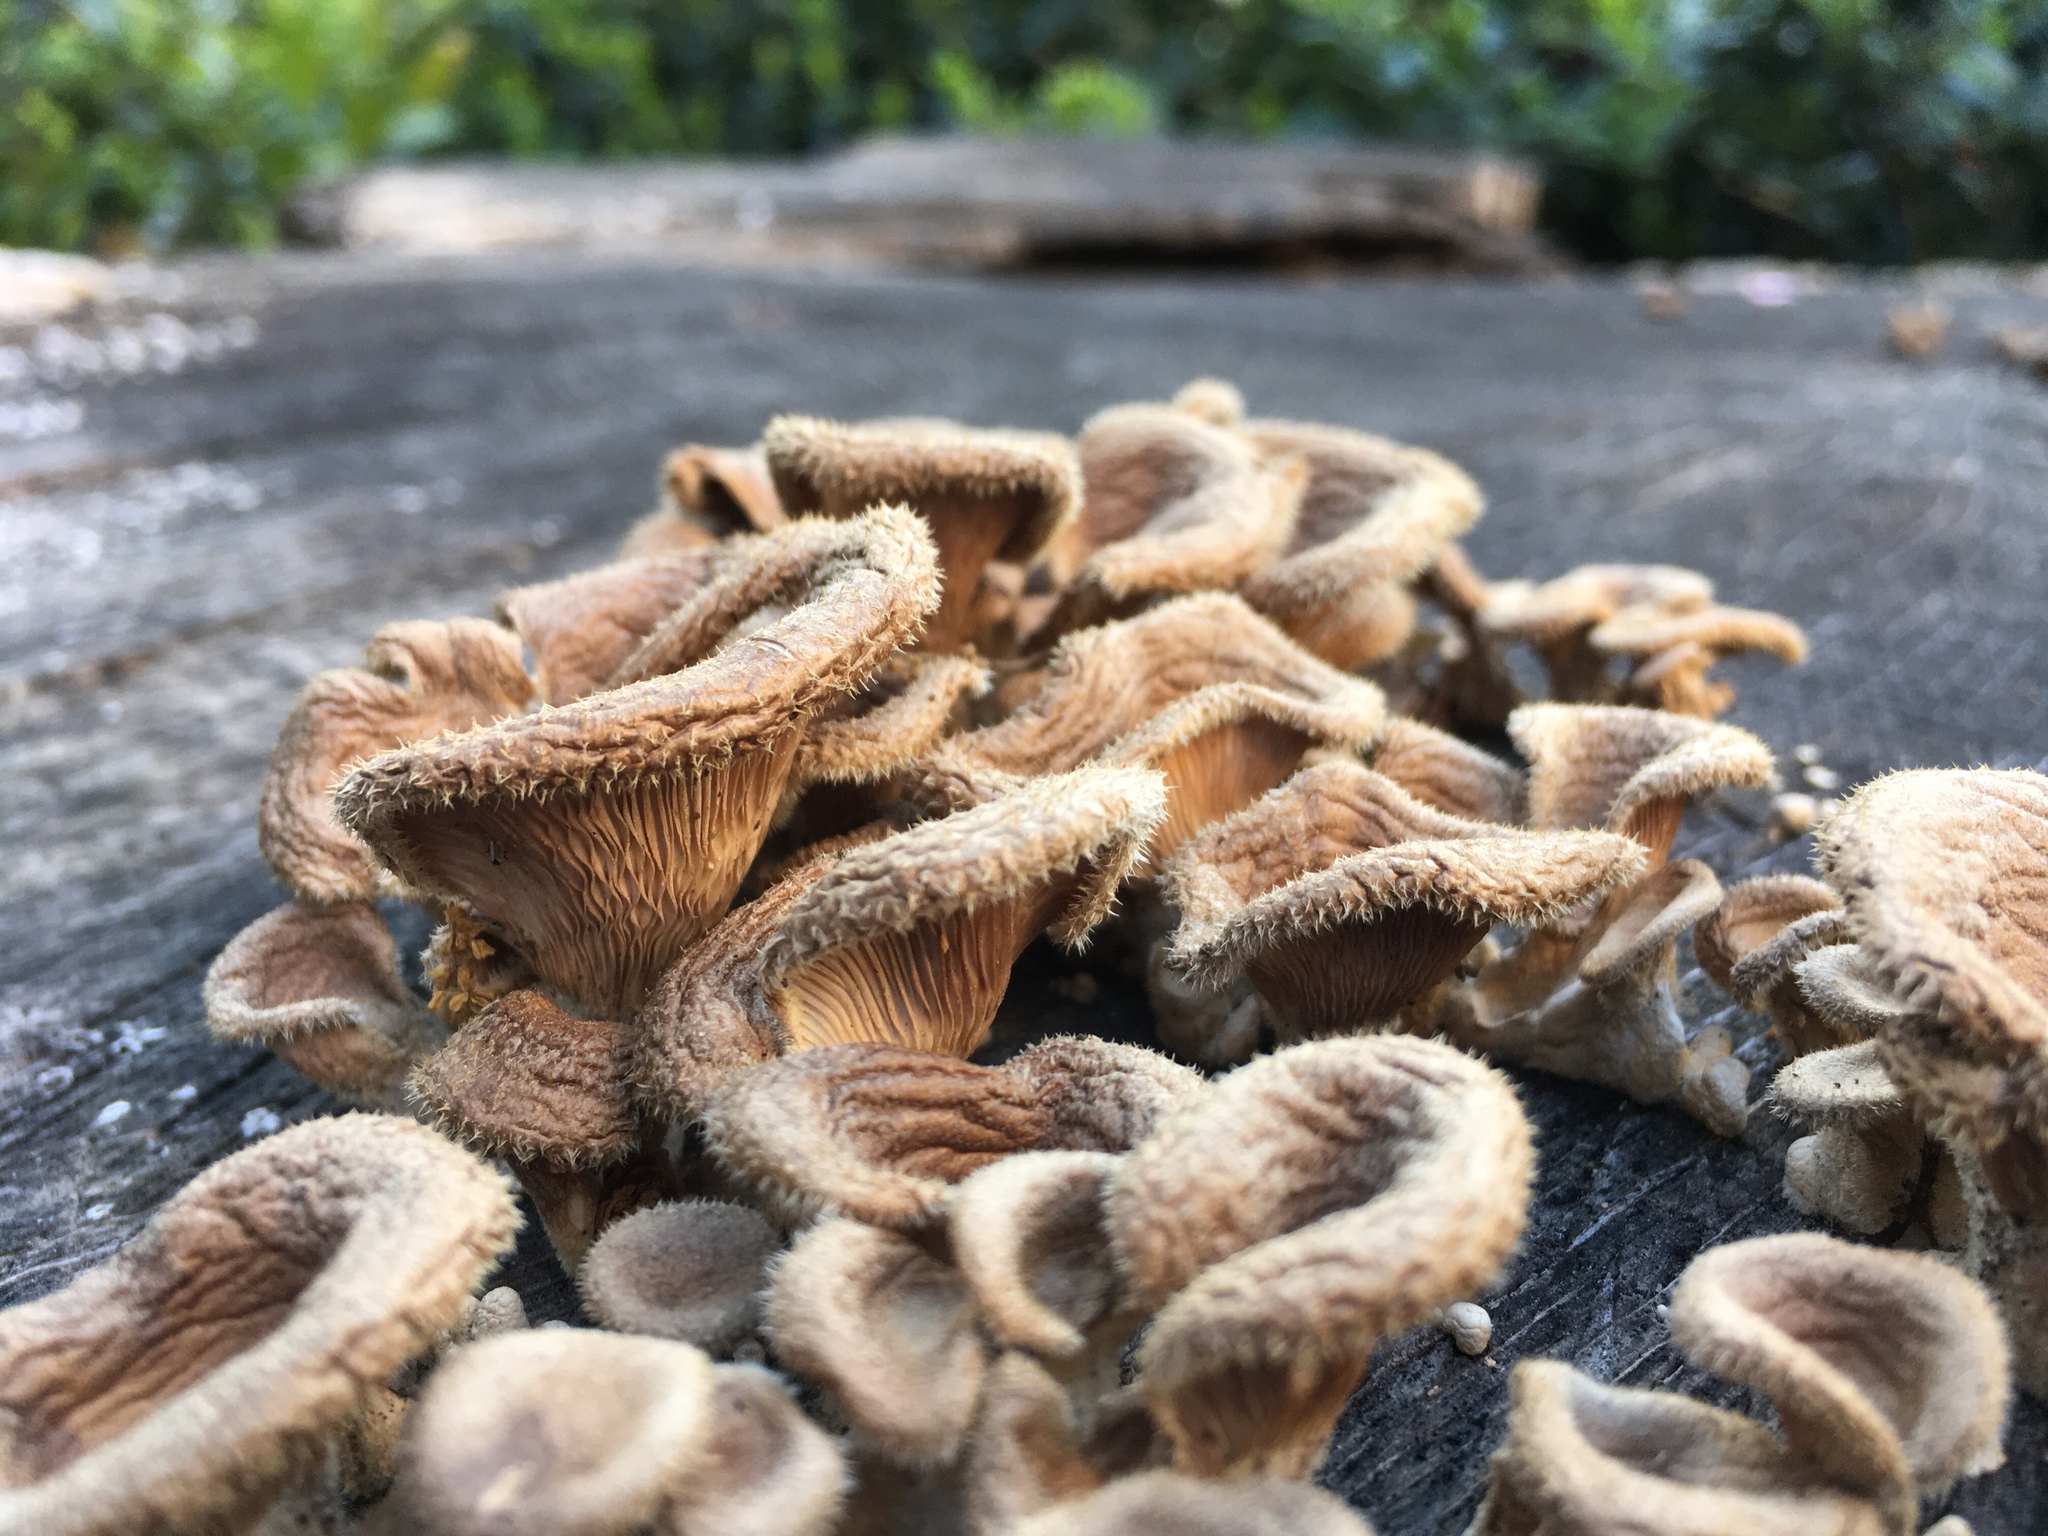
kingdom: Fungi
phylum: Basidiomycota
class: Agaricomycetes
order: Polyporales
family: Panaceae
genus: Panus
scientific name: Panus neostrigosus
